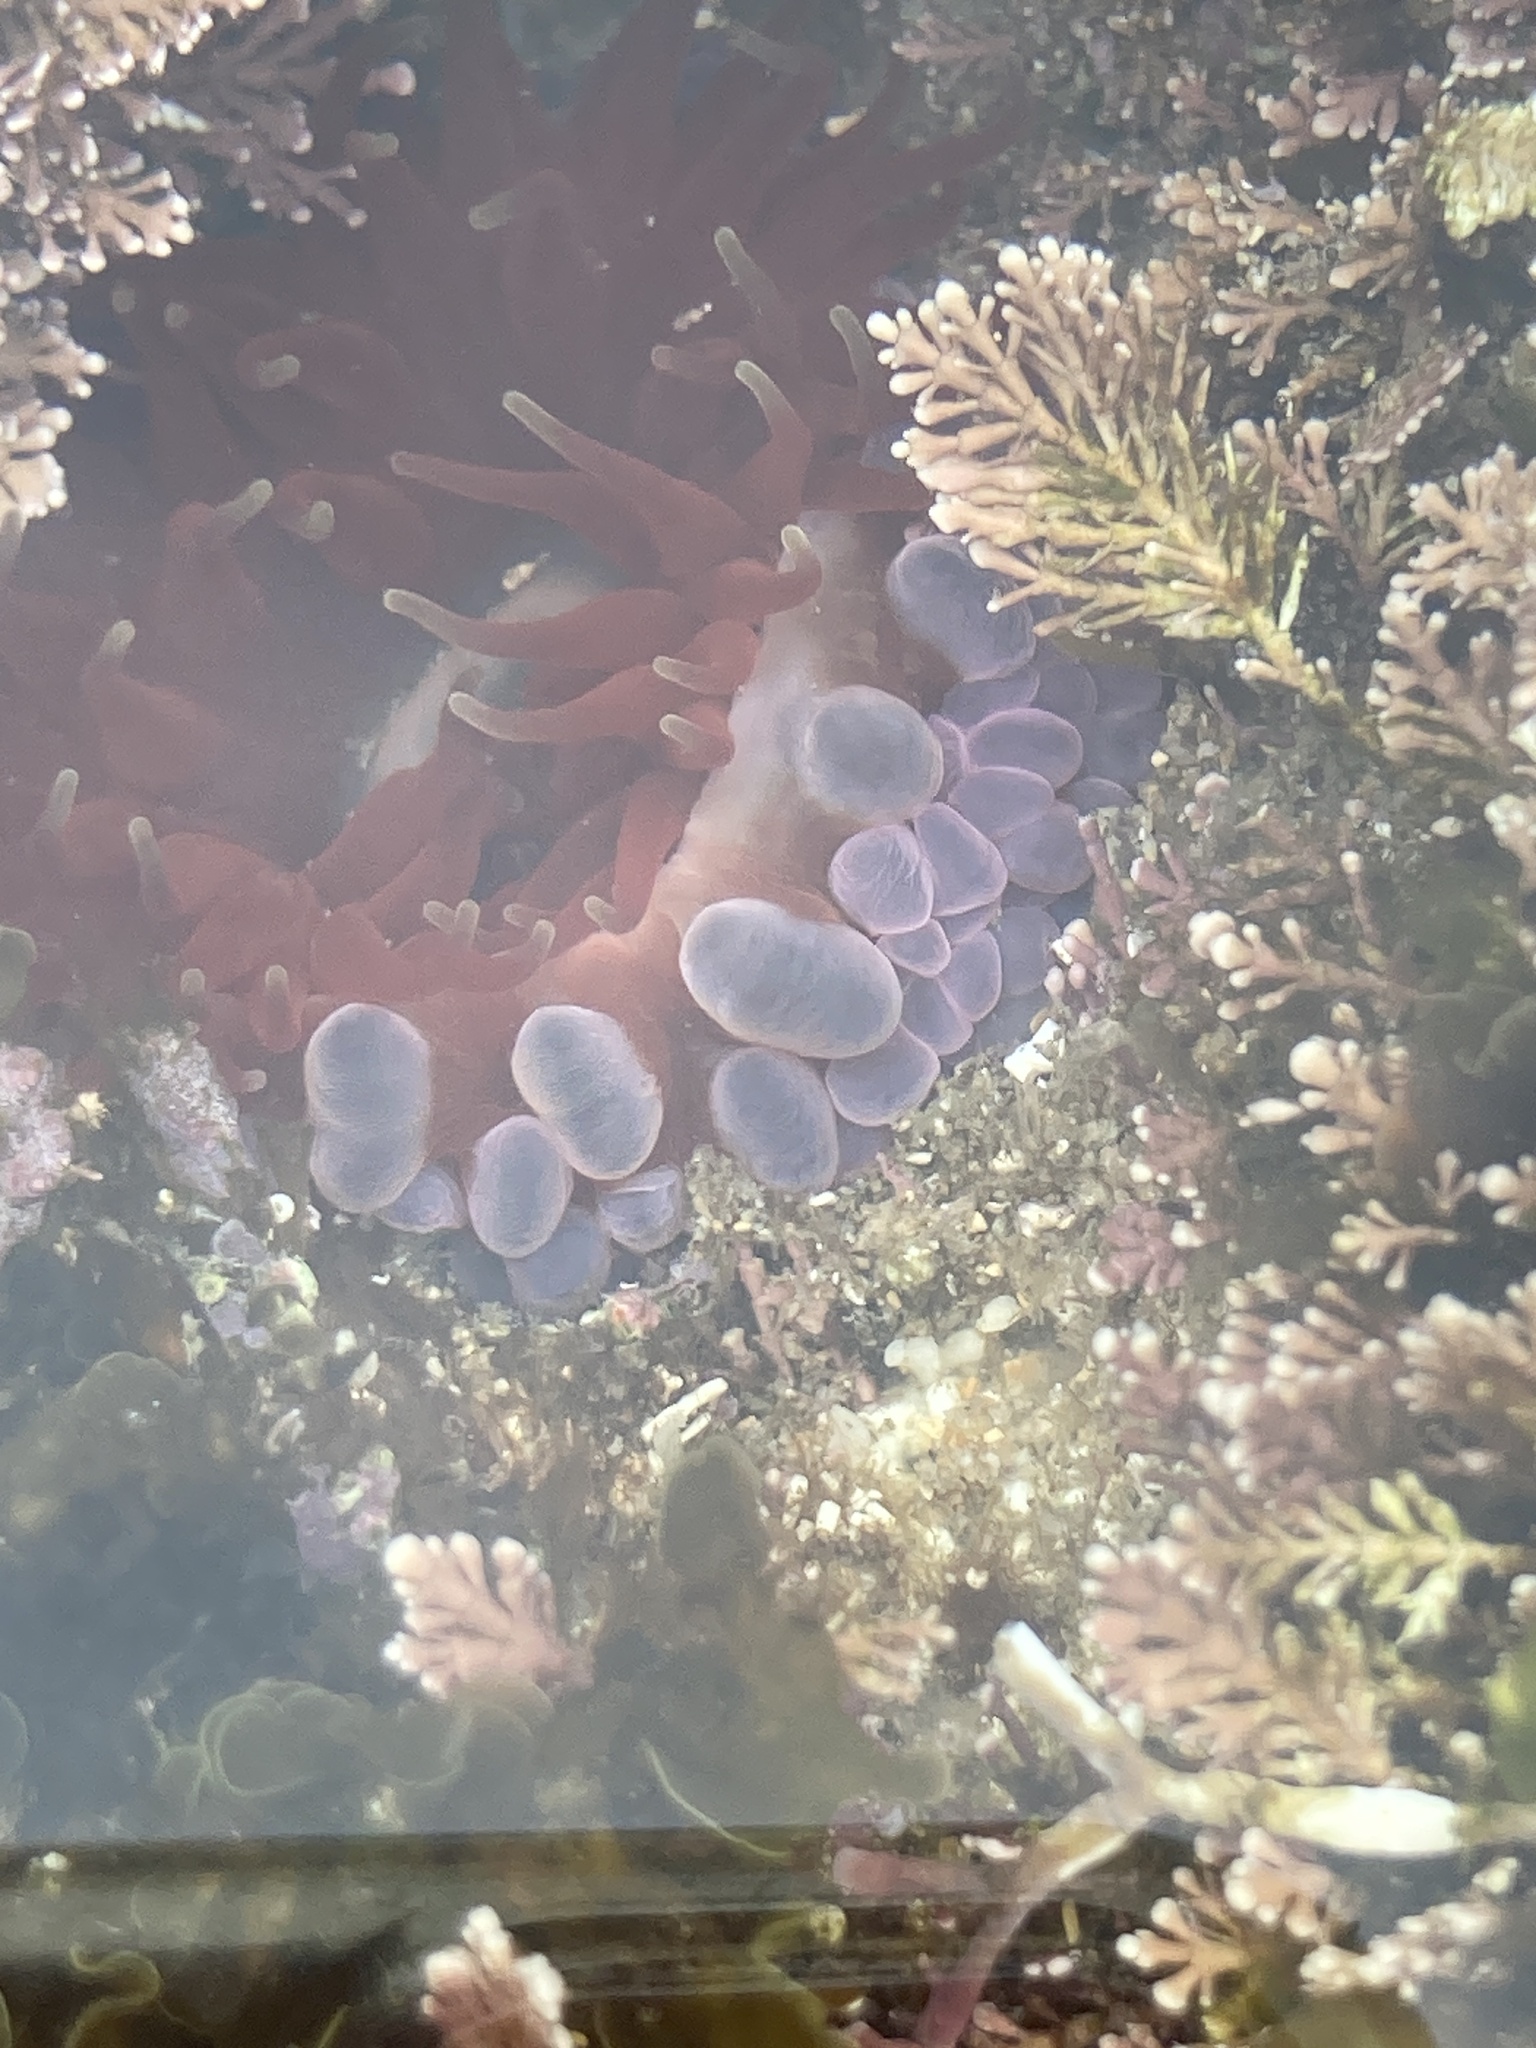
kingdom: Animalia
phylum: Cnidaria
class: Anthozoa
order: Actiniaria
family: Actiniidae
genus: Phlyctenanthus
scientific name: Phlyctenanthus australis
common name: Southern anemone
